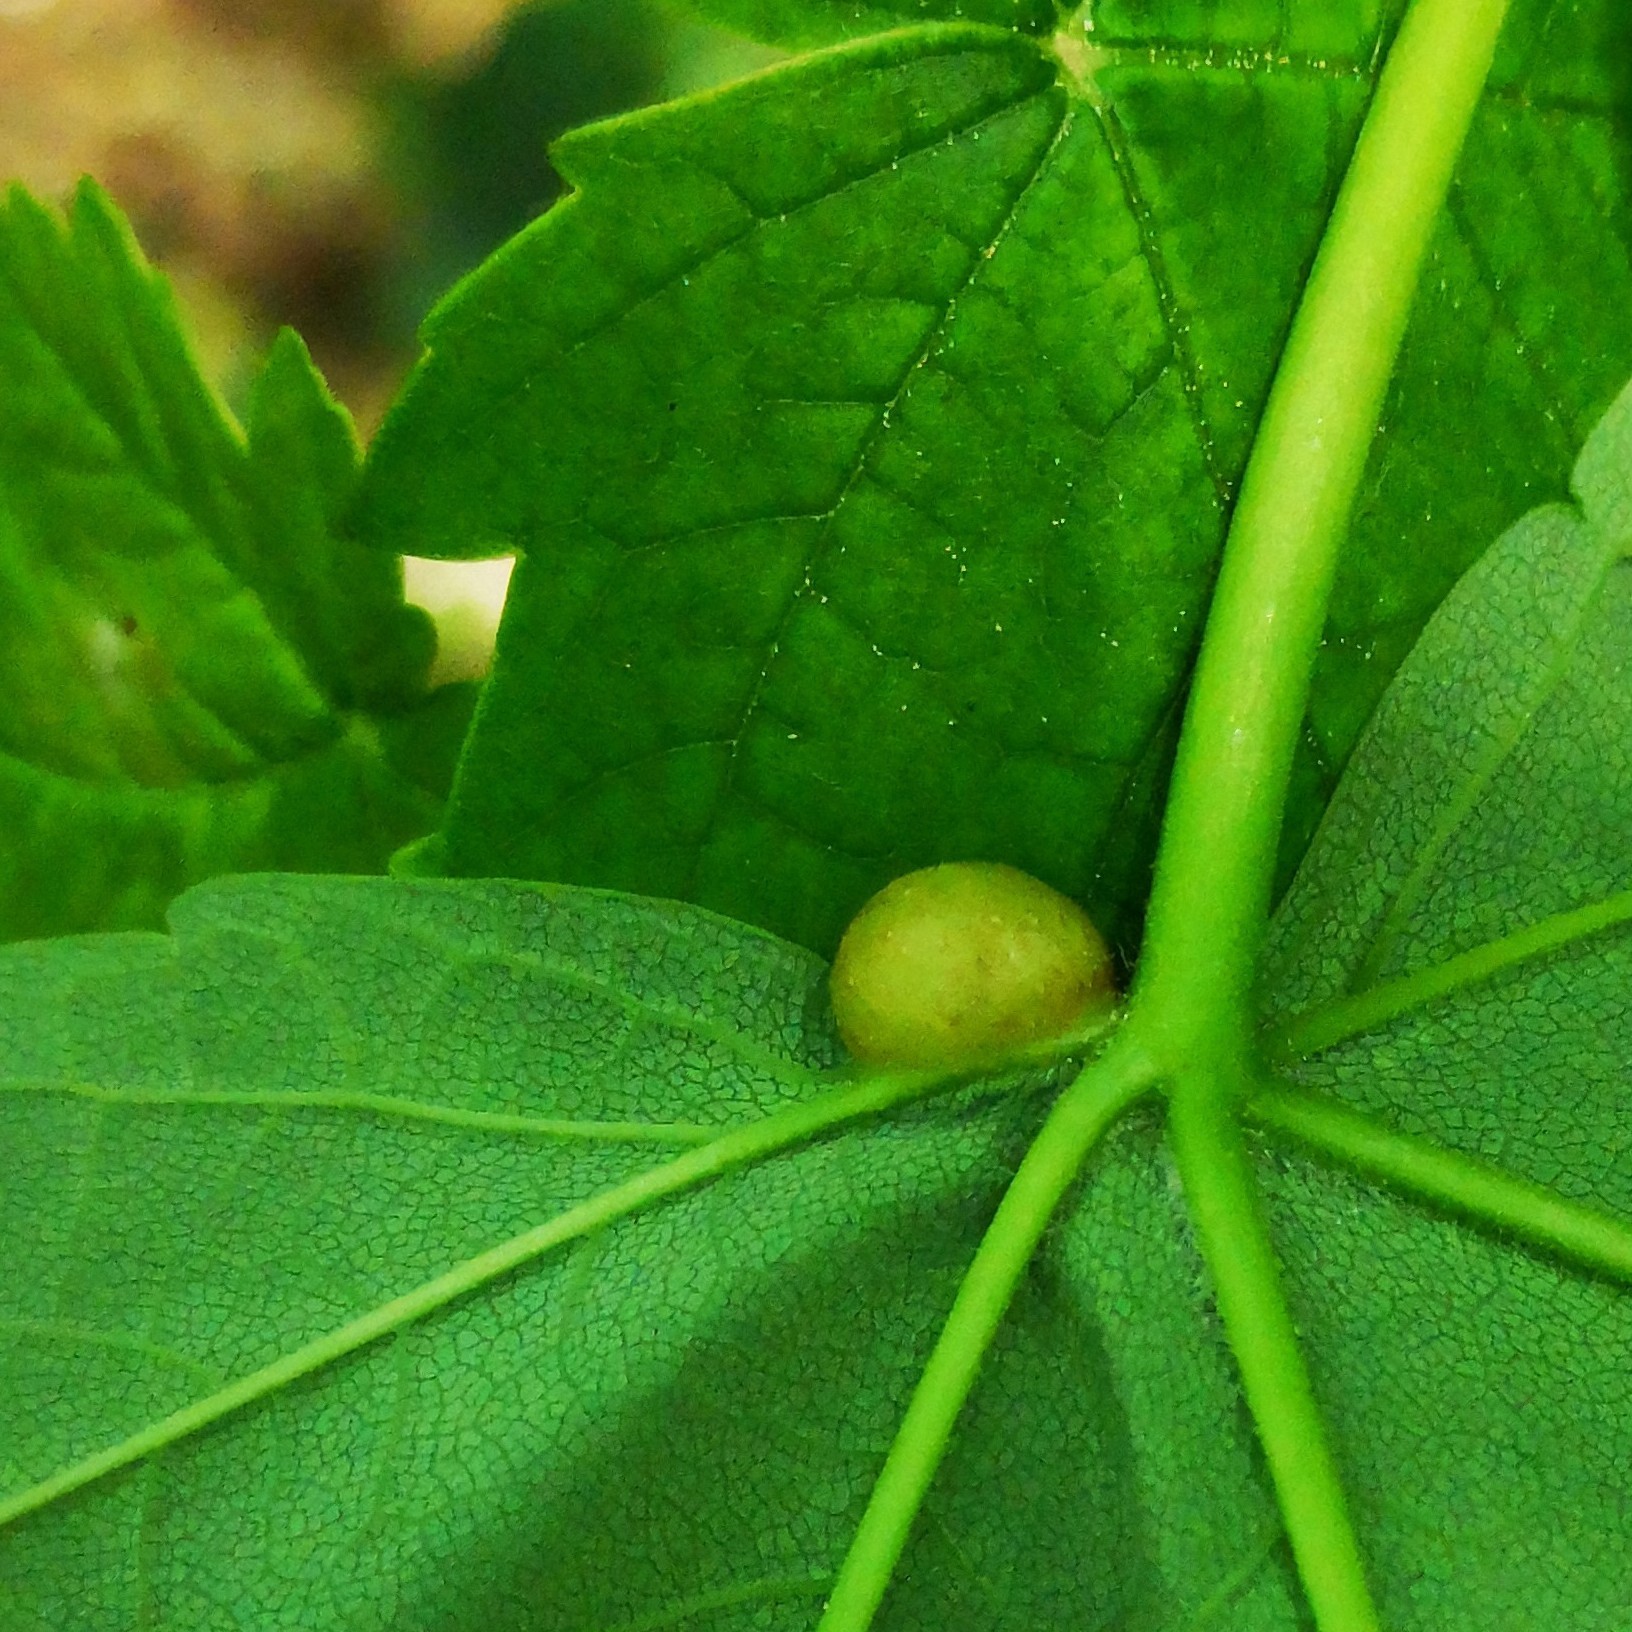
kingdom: Animalia
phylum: Arthropoda
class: Insecta
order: Hymenoptera
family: Cynipidae
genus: Pediaspis
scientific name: Pediaspis aceris
